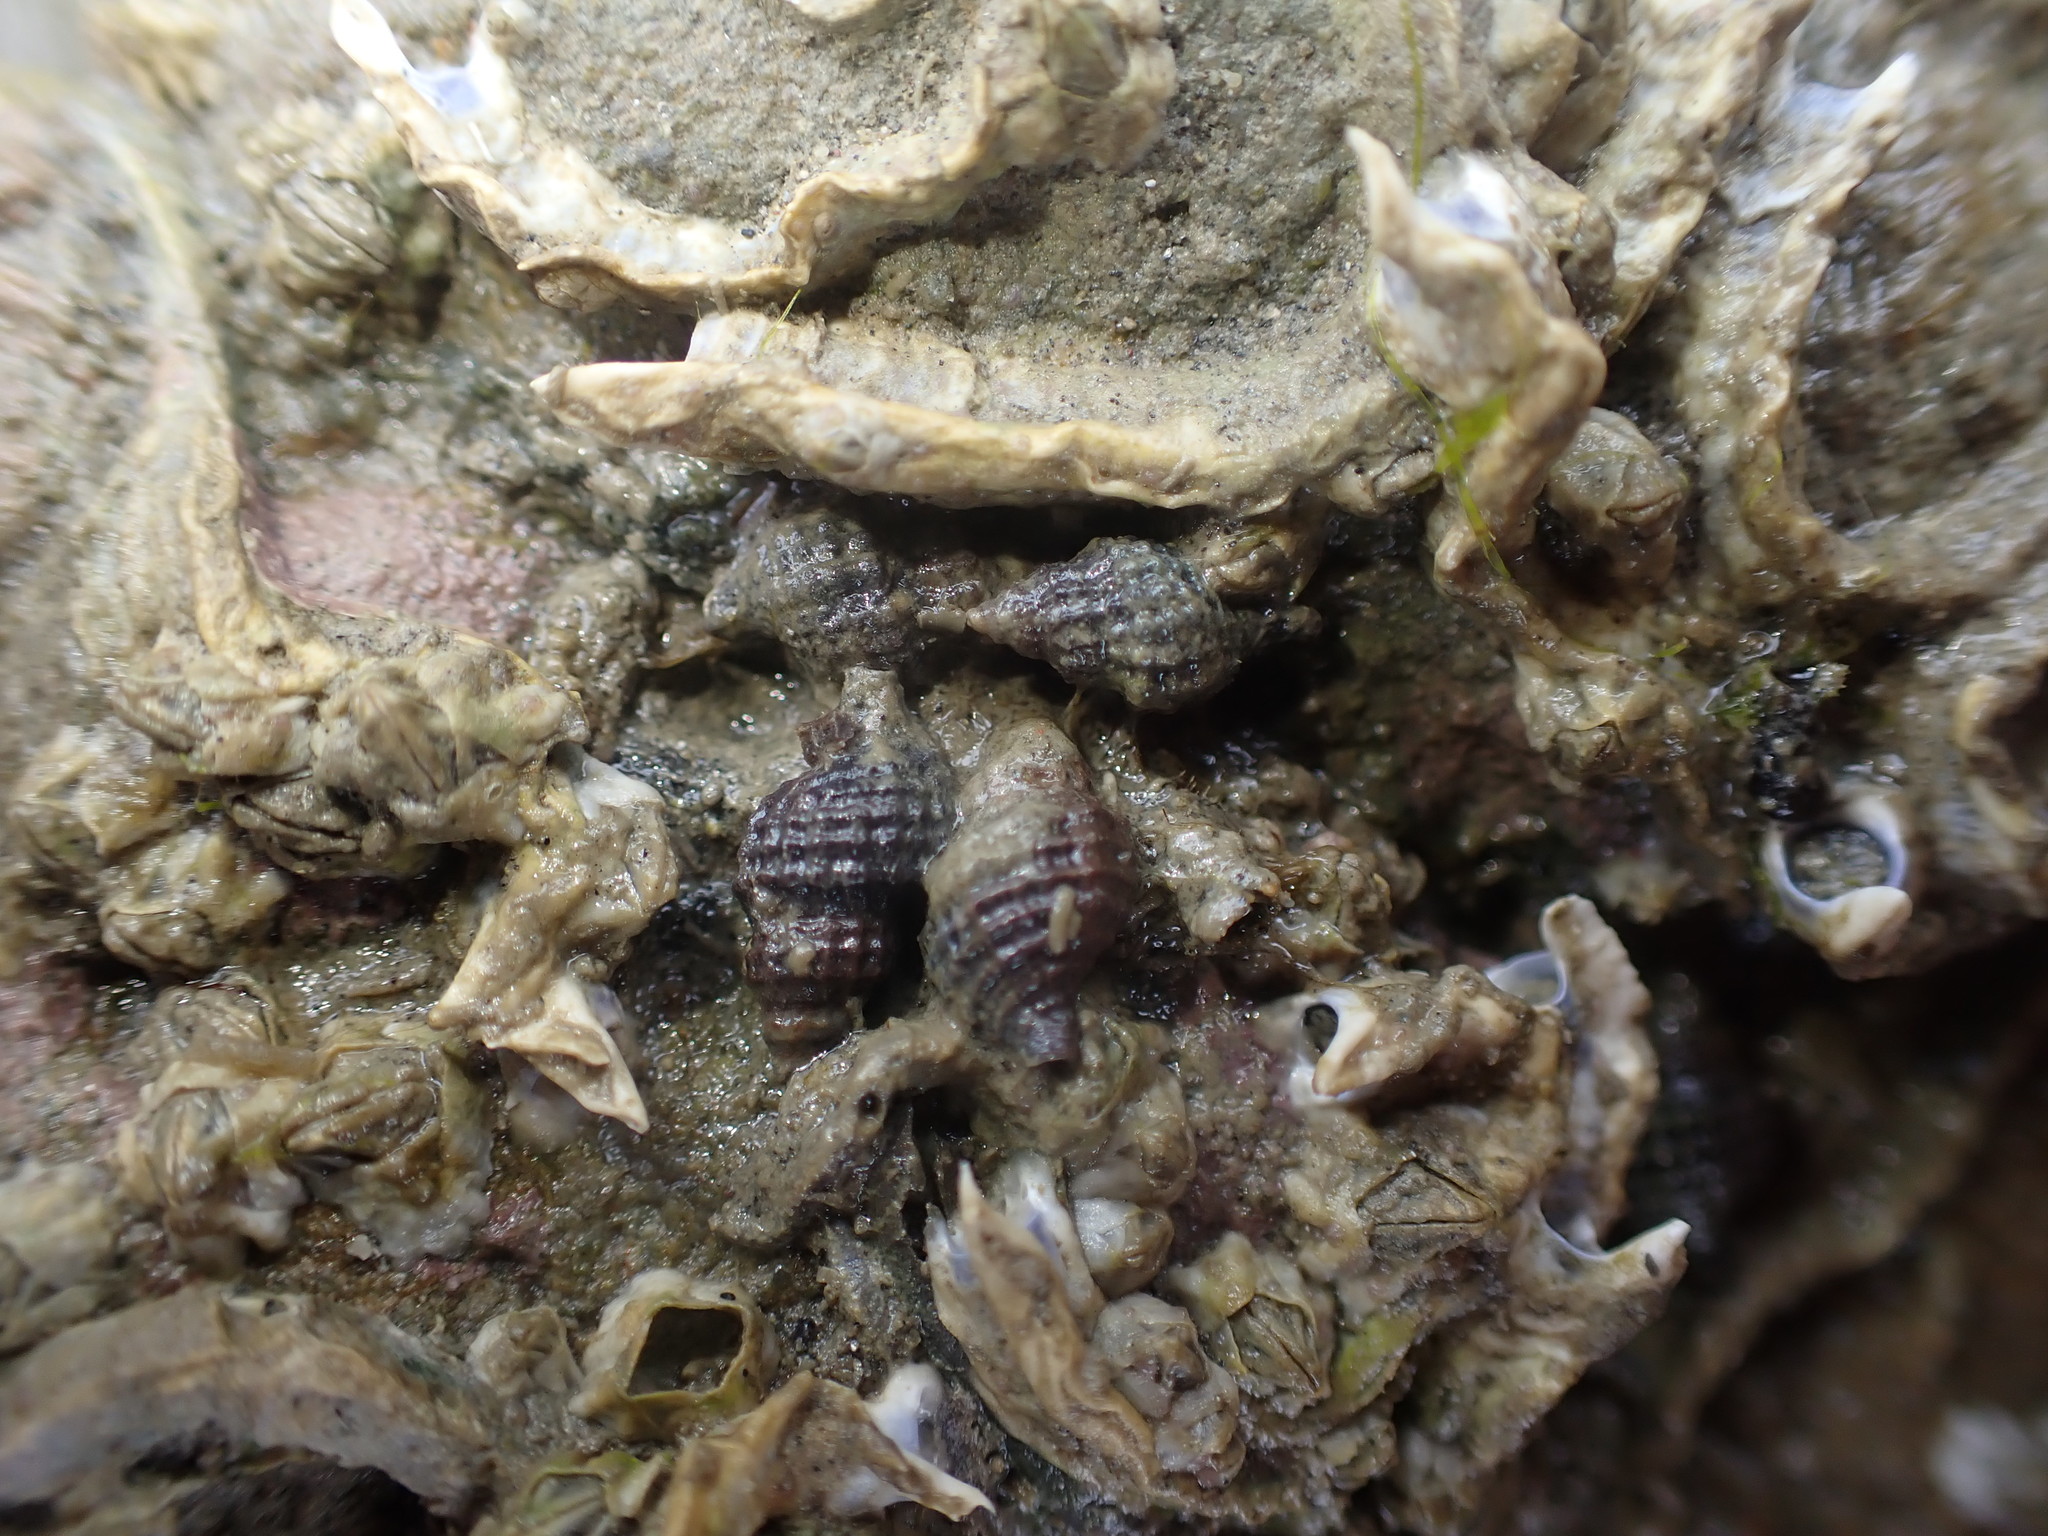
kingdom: Animalia
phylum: Mollusca
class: Gastropoda
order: Neogastropoda
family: Muricidae
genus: Xymene
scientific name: Xymene plebeius
